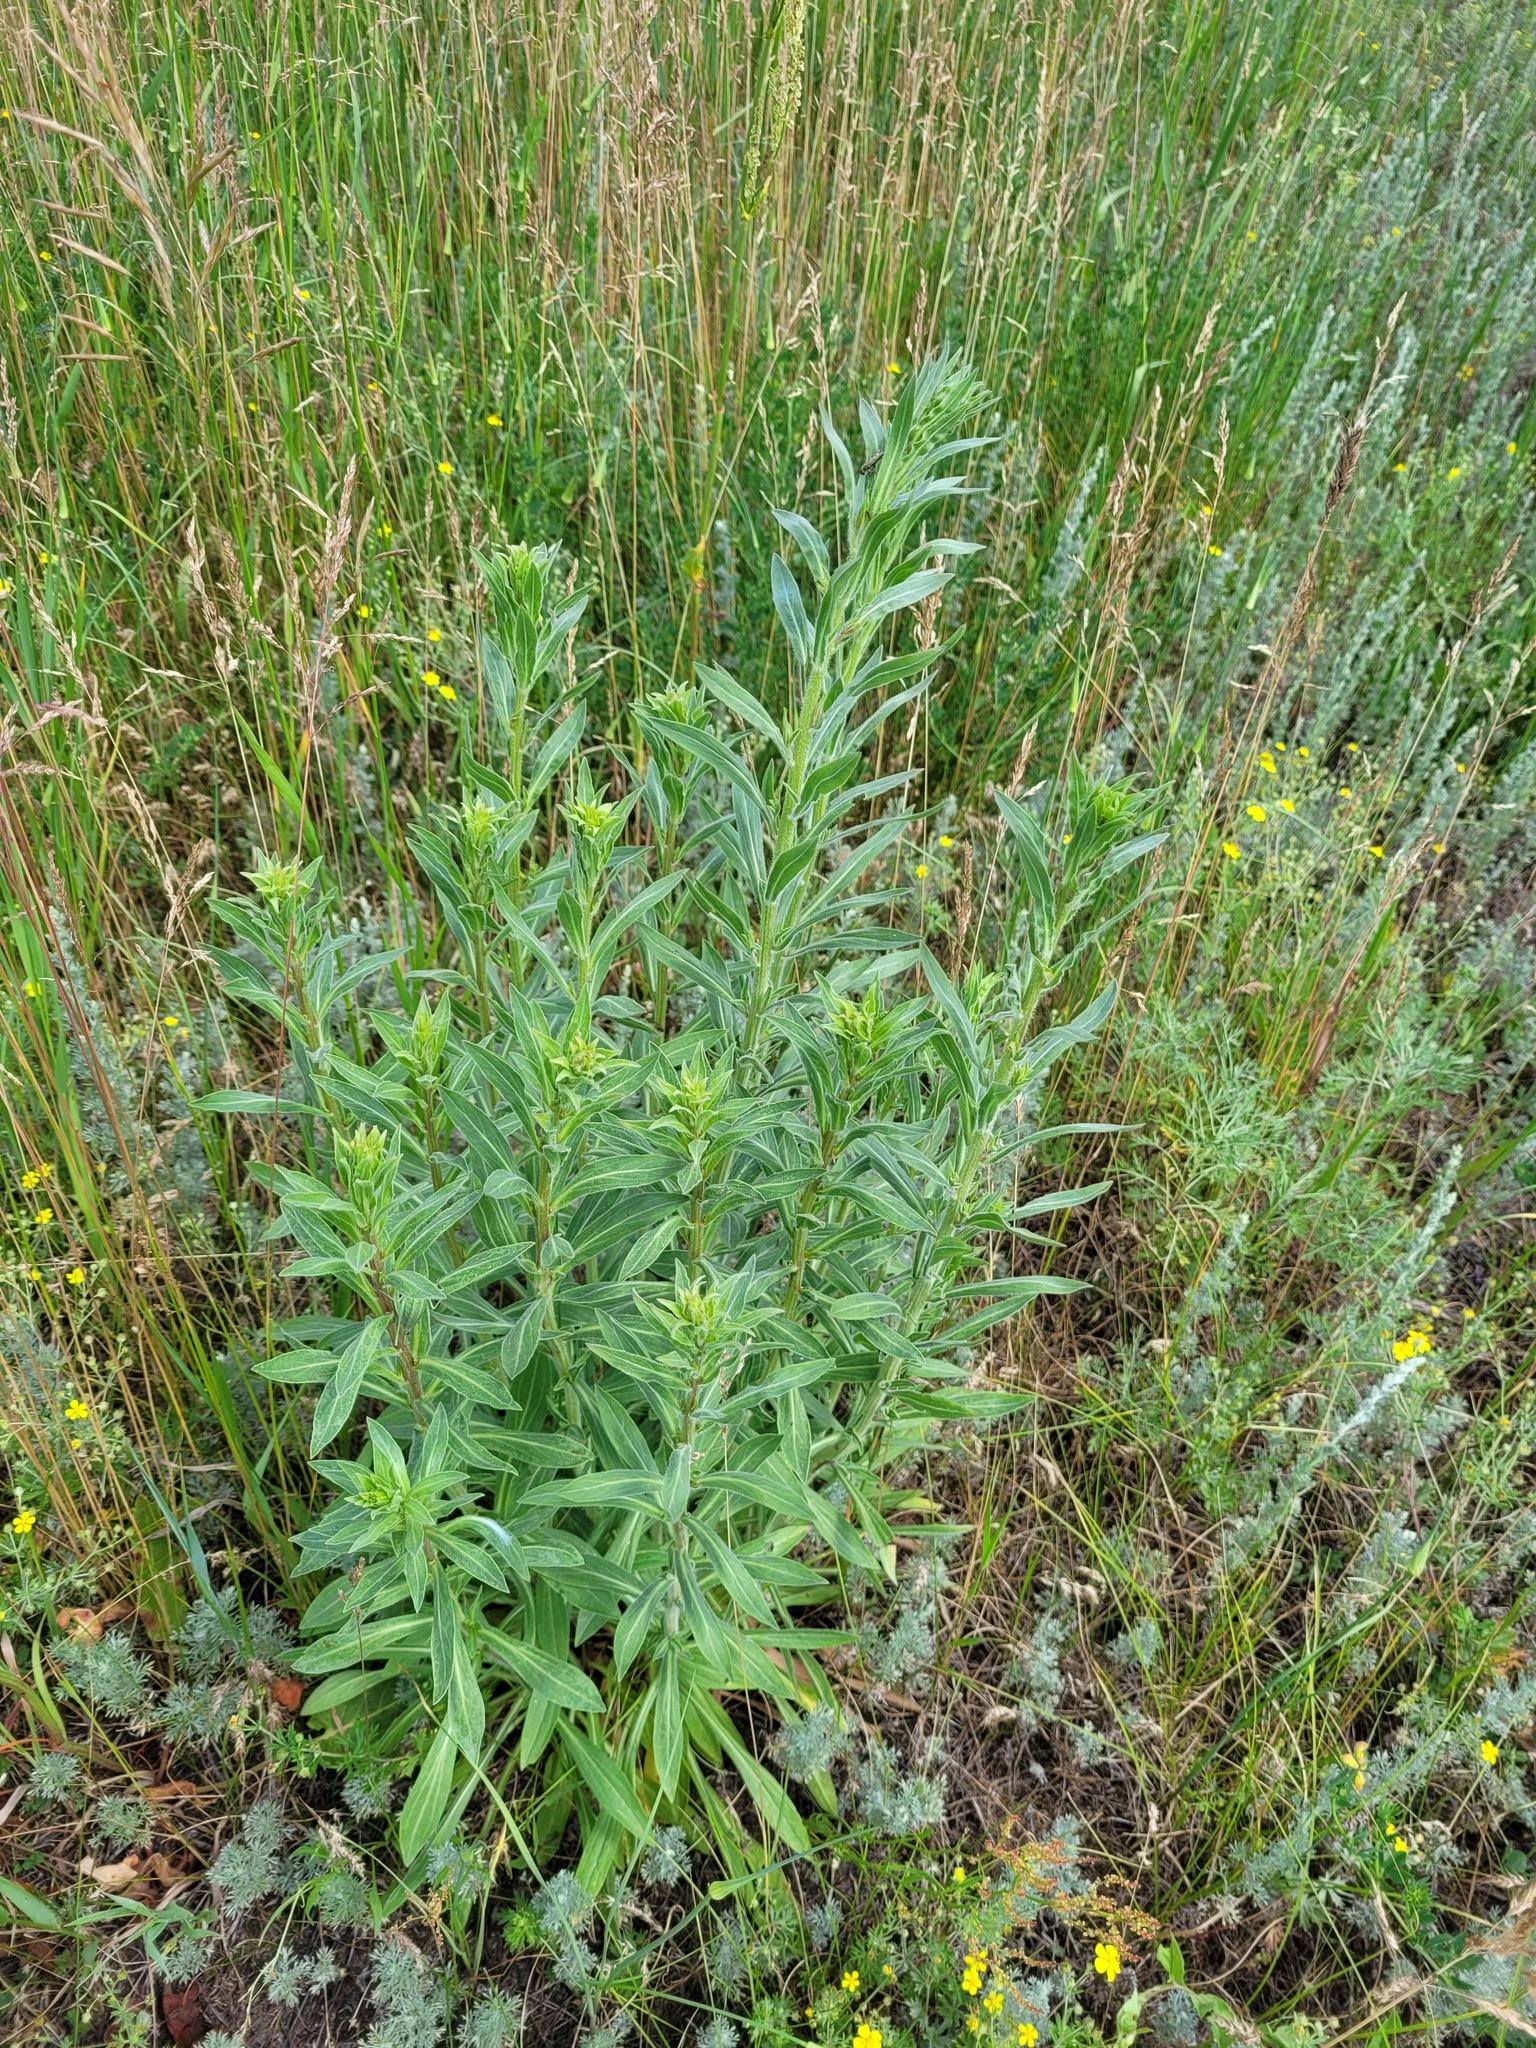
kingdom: Plantae
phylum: Tracheophyta
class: Magnoliopsida
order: Asterales
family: Asteraceae
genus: Erigeron
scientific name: Erigeron podolicus
